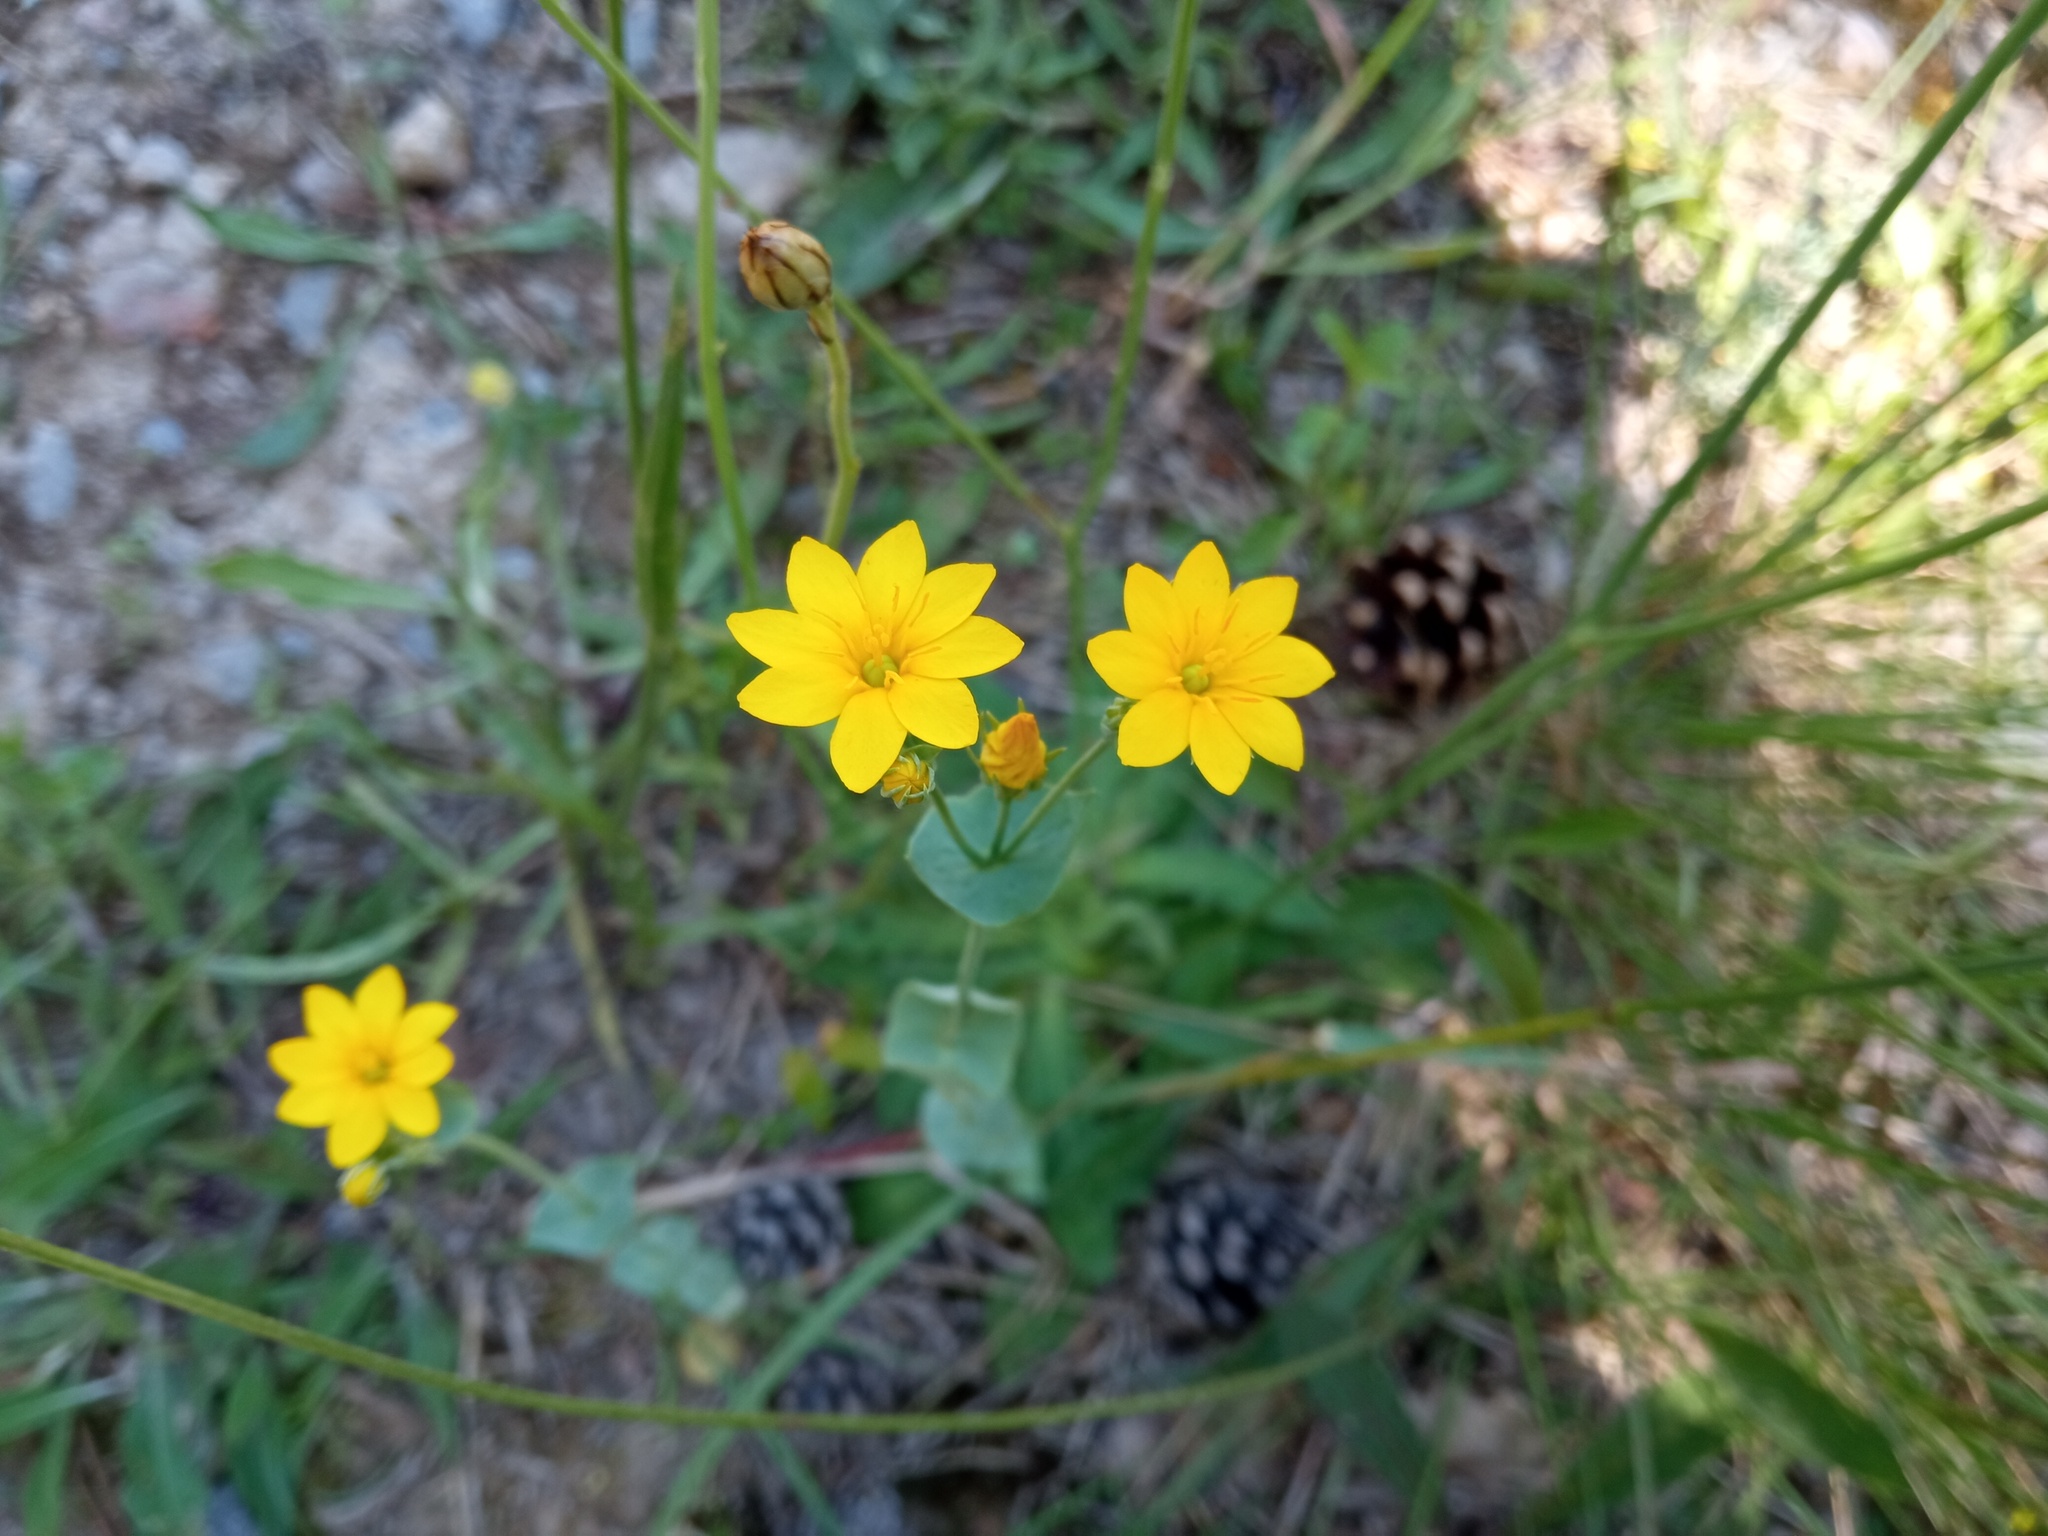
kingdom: Plantae
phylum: Tracheophyta
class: Magnoliopsida
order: Gentianales
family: Gentianaceae
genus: Blackstonia
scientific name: Blackstonia perfoliata
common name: Yellow-wort
